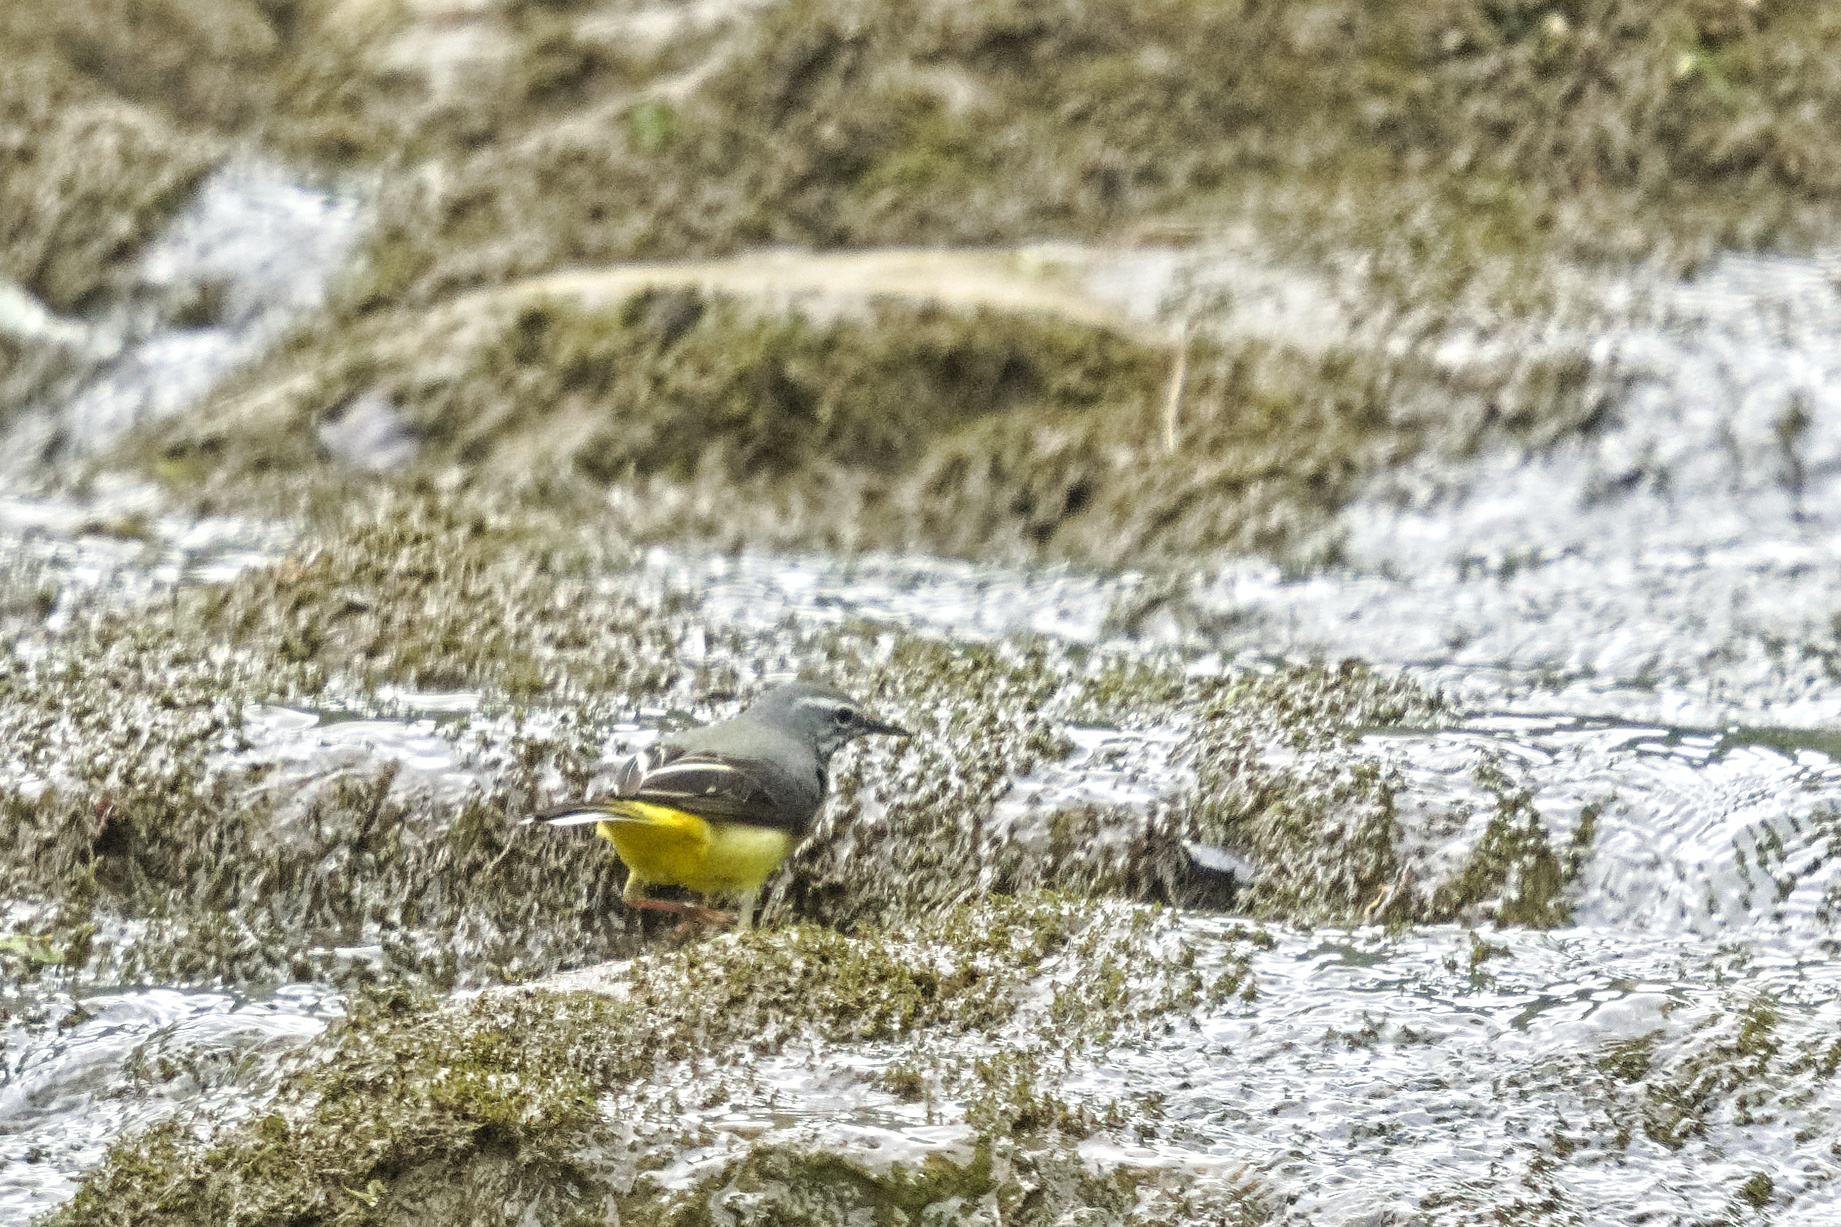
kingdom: Animalia
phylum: Chordata
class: Aves
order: Passeriformes
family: Motacillidae
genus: Motacilla
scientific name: Motacilla cinerea
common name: Grey wagtail
